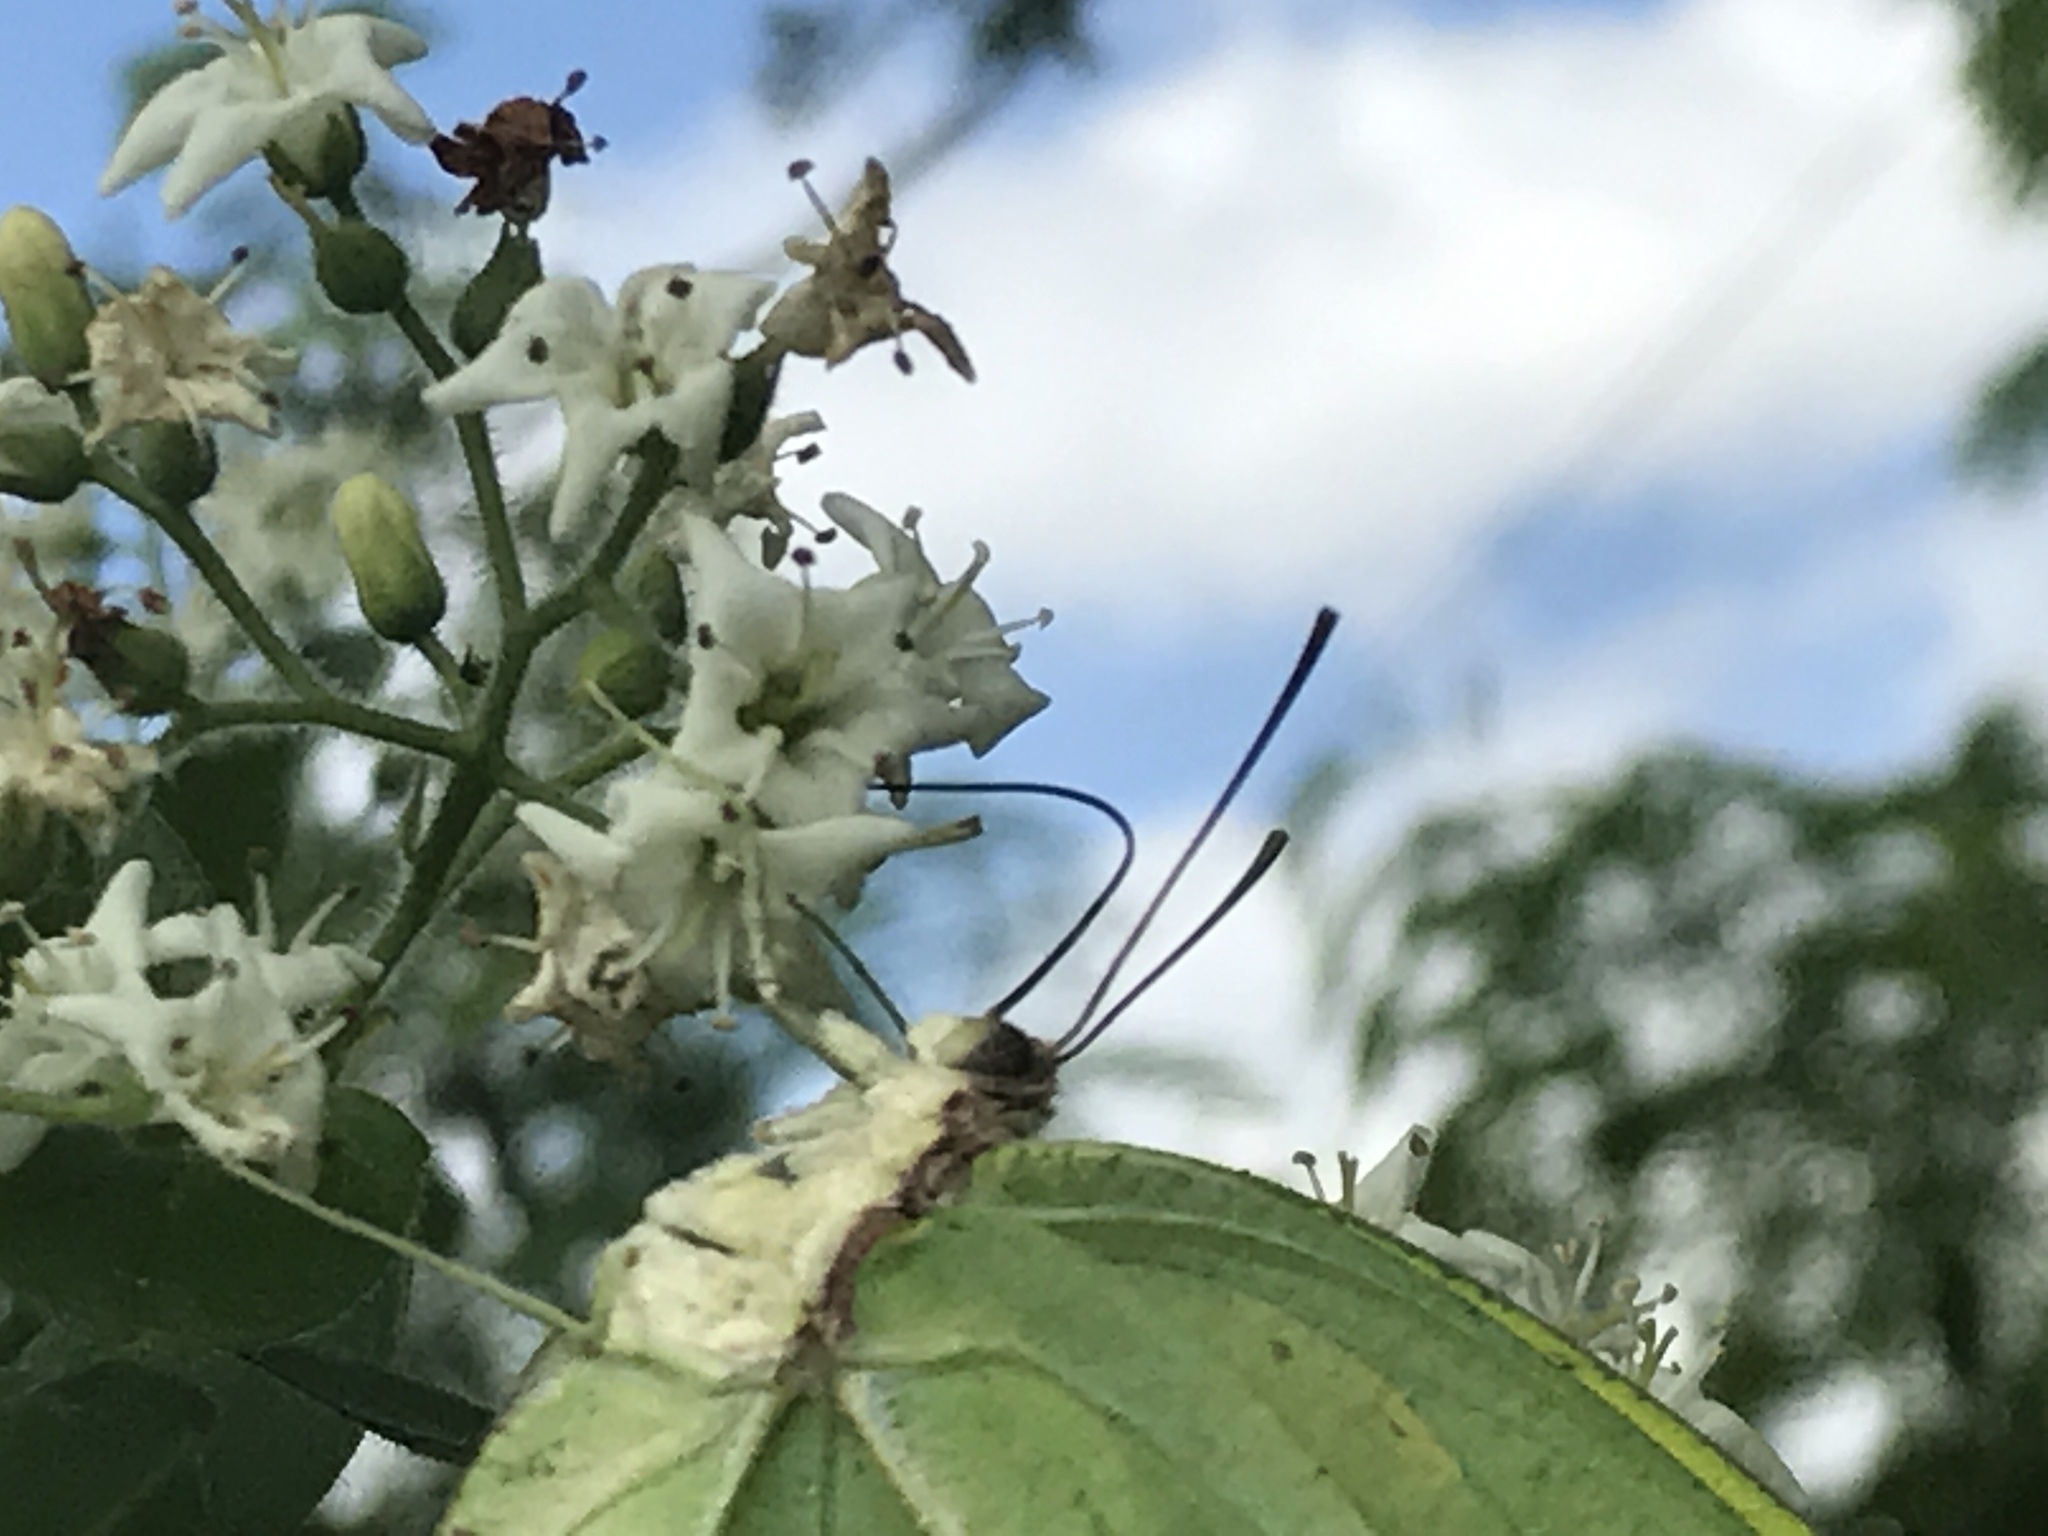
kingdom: Animalia
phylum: Arthropoda
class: Insecta
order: Lepidoptera
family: Pieridae
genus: Anteos
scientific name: Anteos maerula
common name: Angled sulphur
